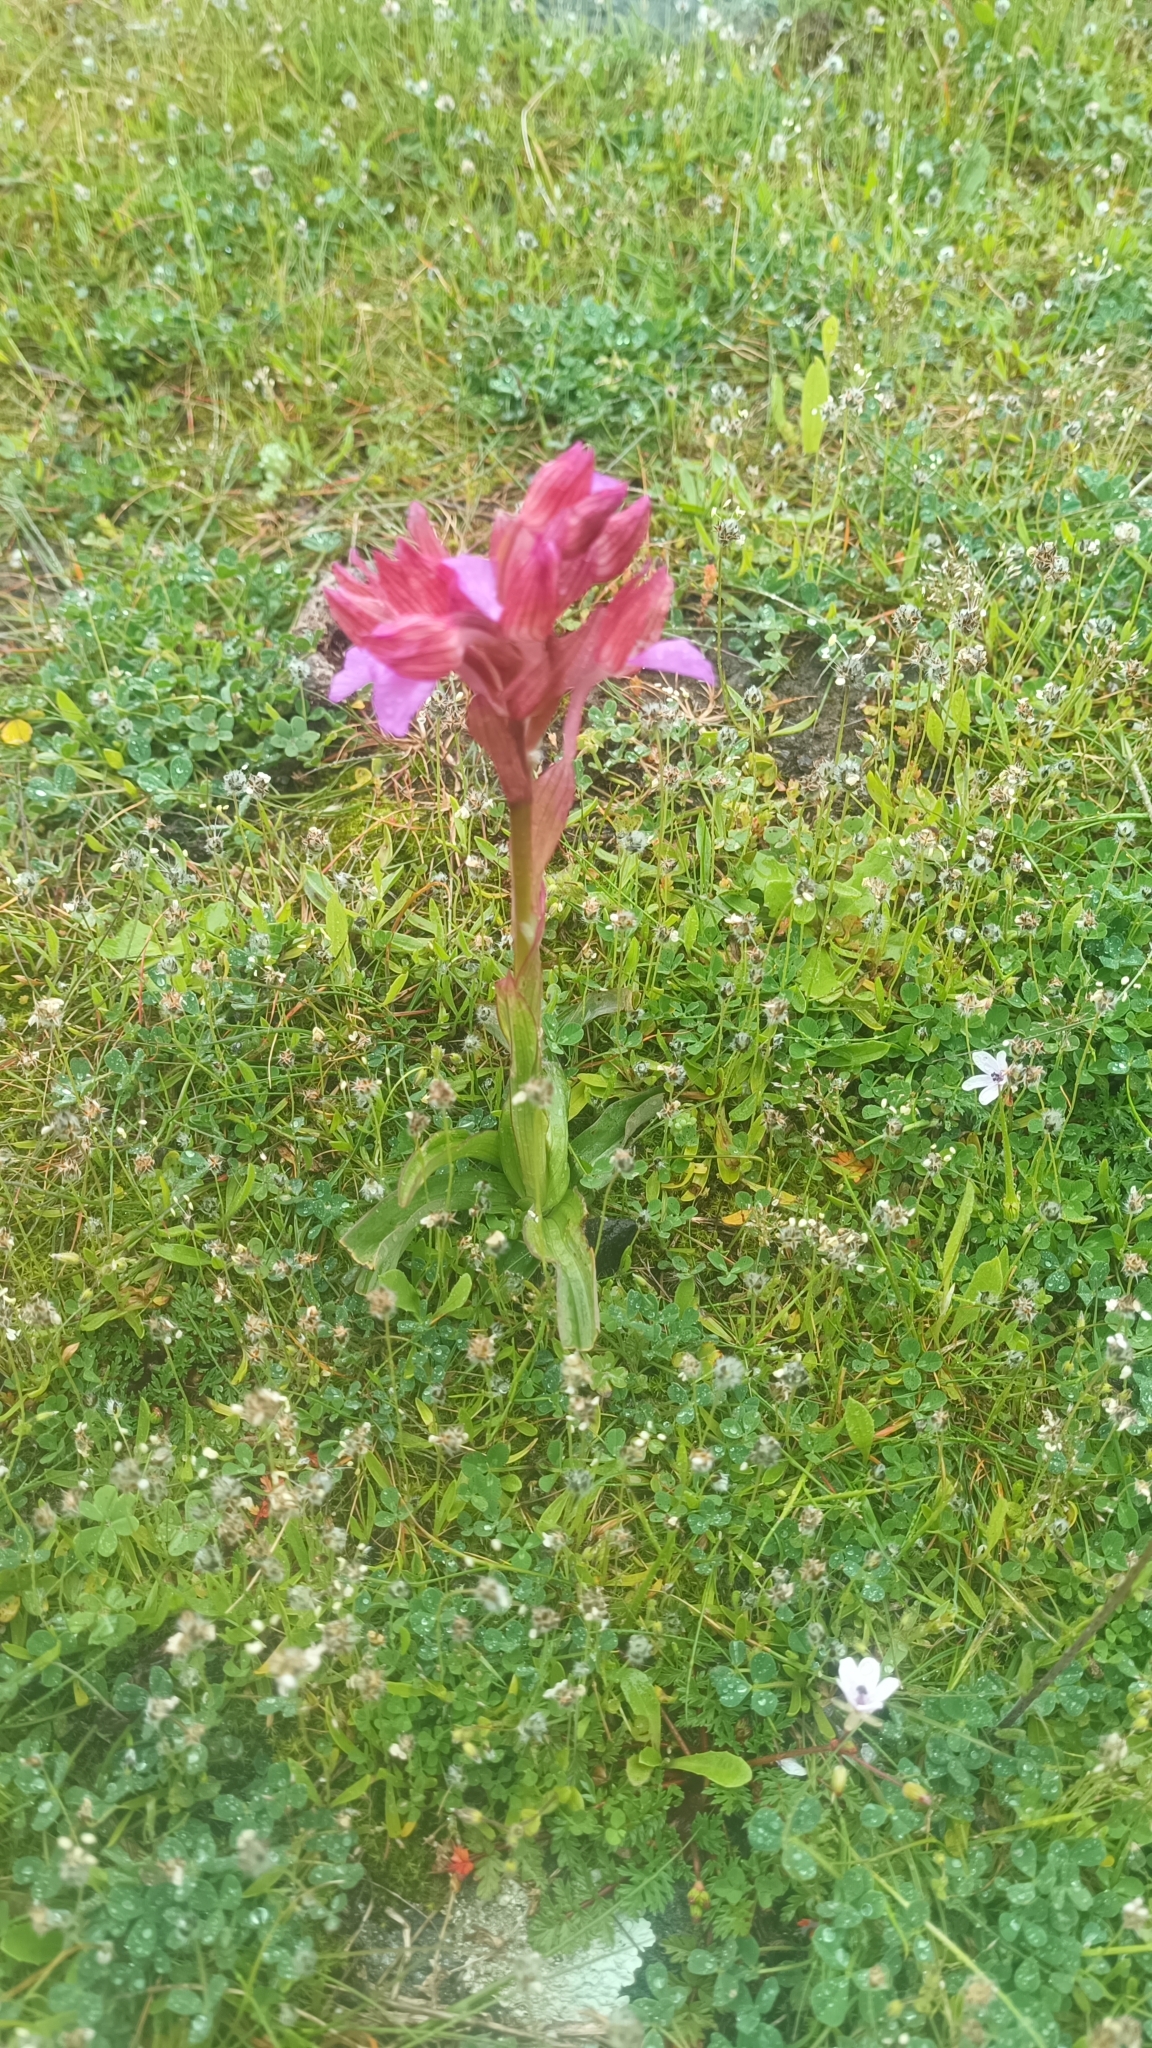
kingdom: Plantae
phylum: Tracheophyta
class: Liliopsida
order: Asparagales
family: Orchidaceae
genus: Anacamptis
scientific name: Anacamptis papilionacea
